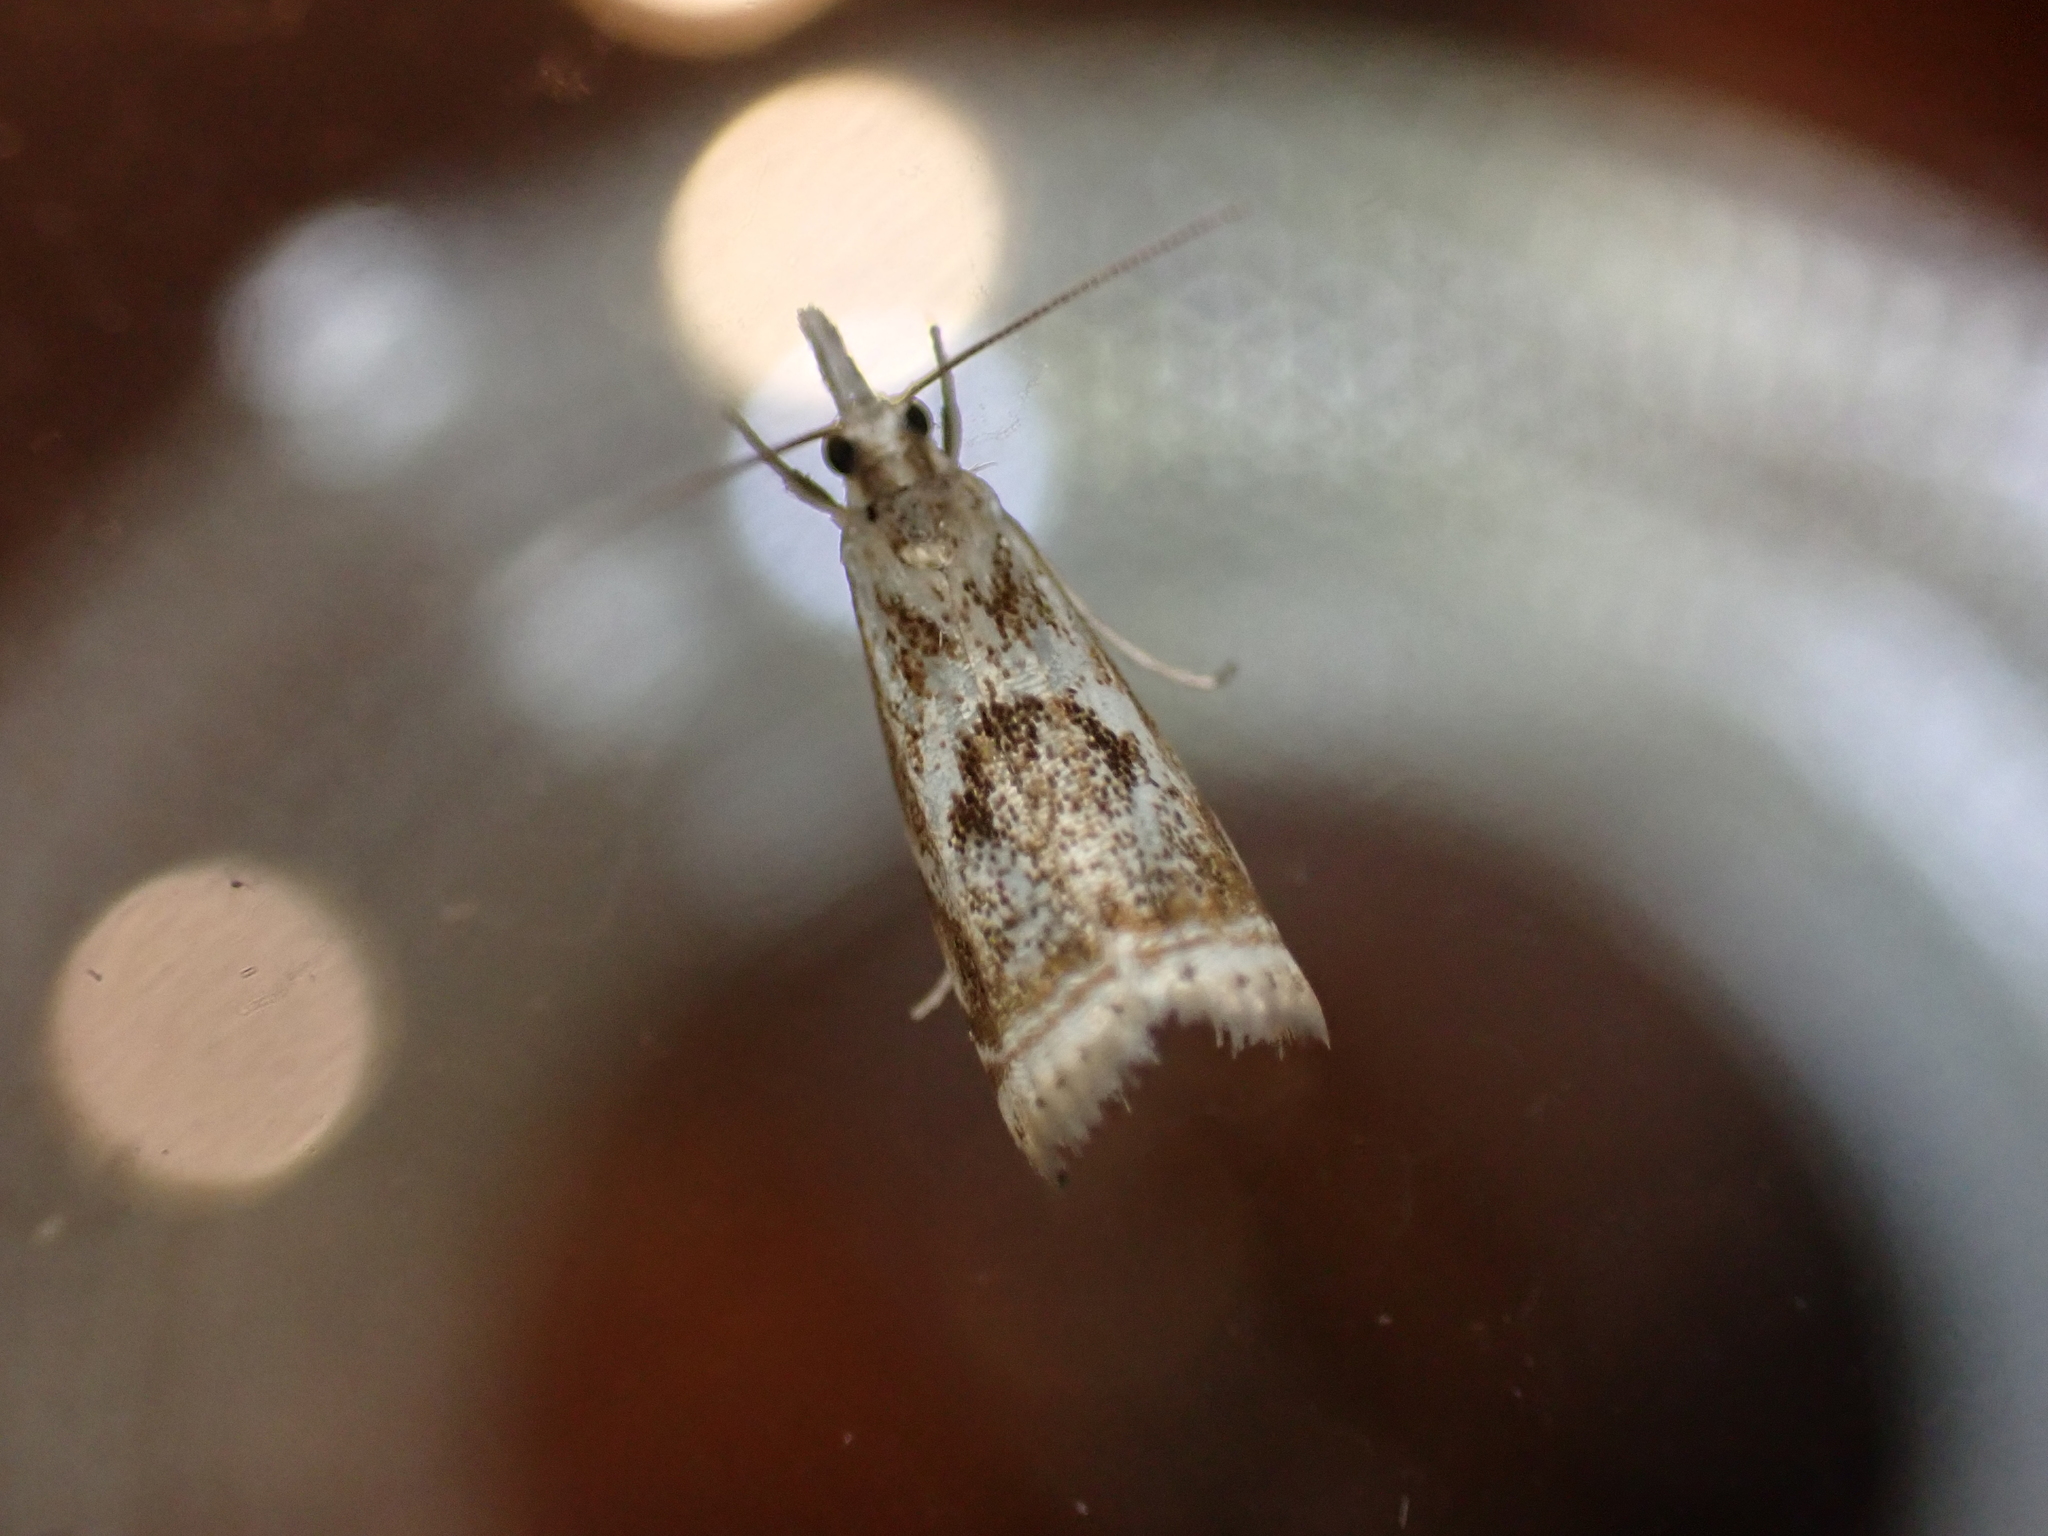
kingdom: Animalia
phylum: Arthropoda
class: Insecta
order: Lepidoptera
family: Crambidae
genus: Microcrambus
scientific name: Microcrambus elegans
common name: Elegant grass-veneer
